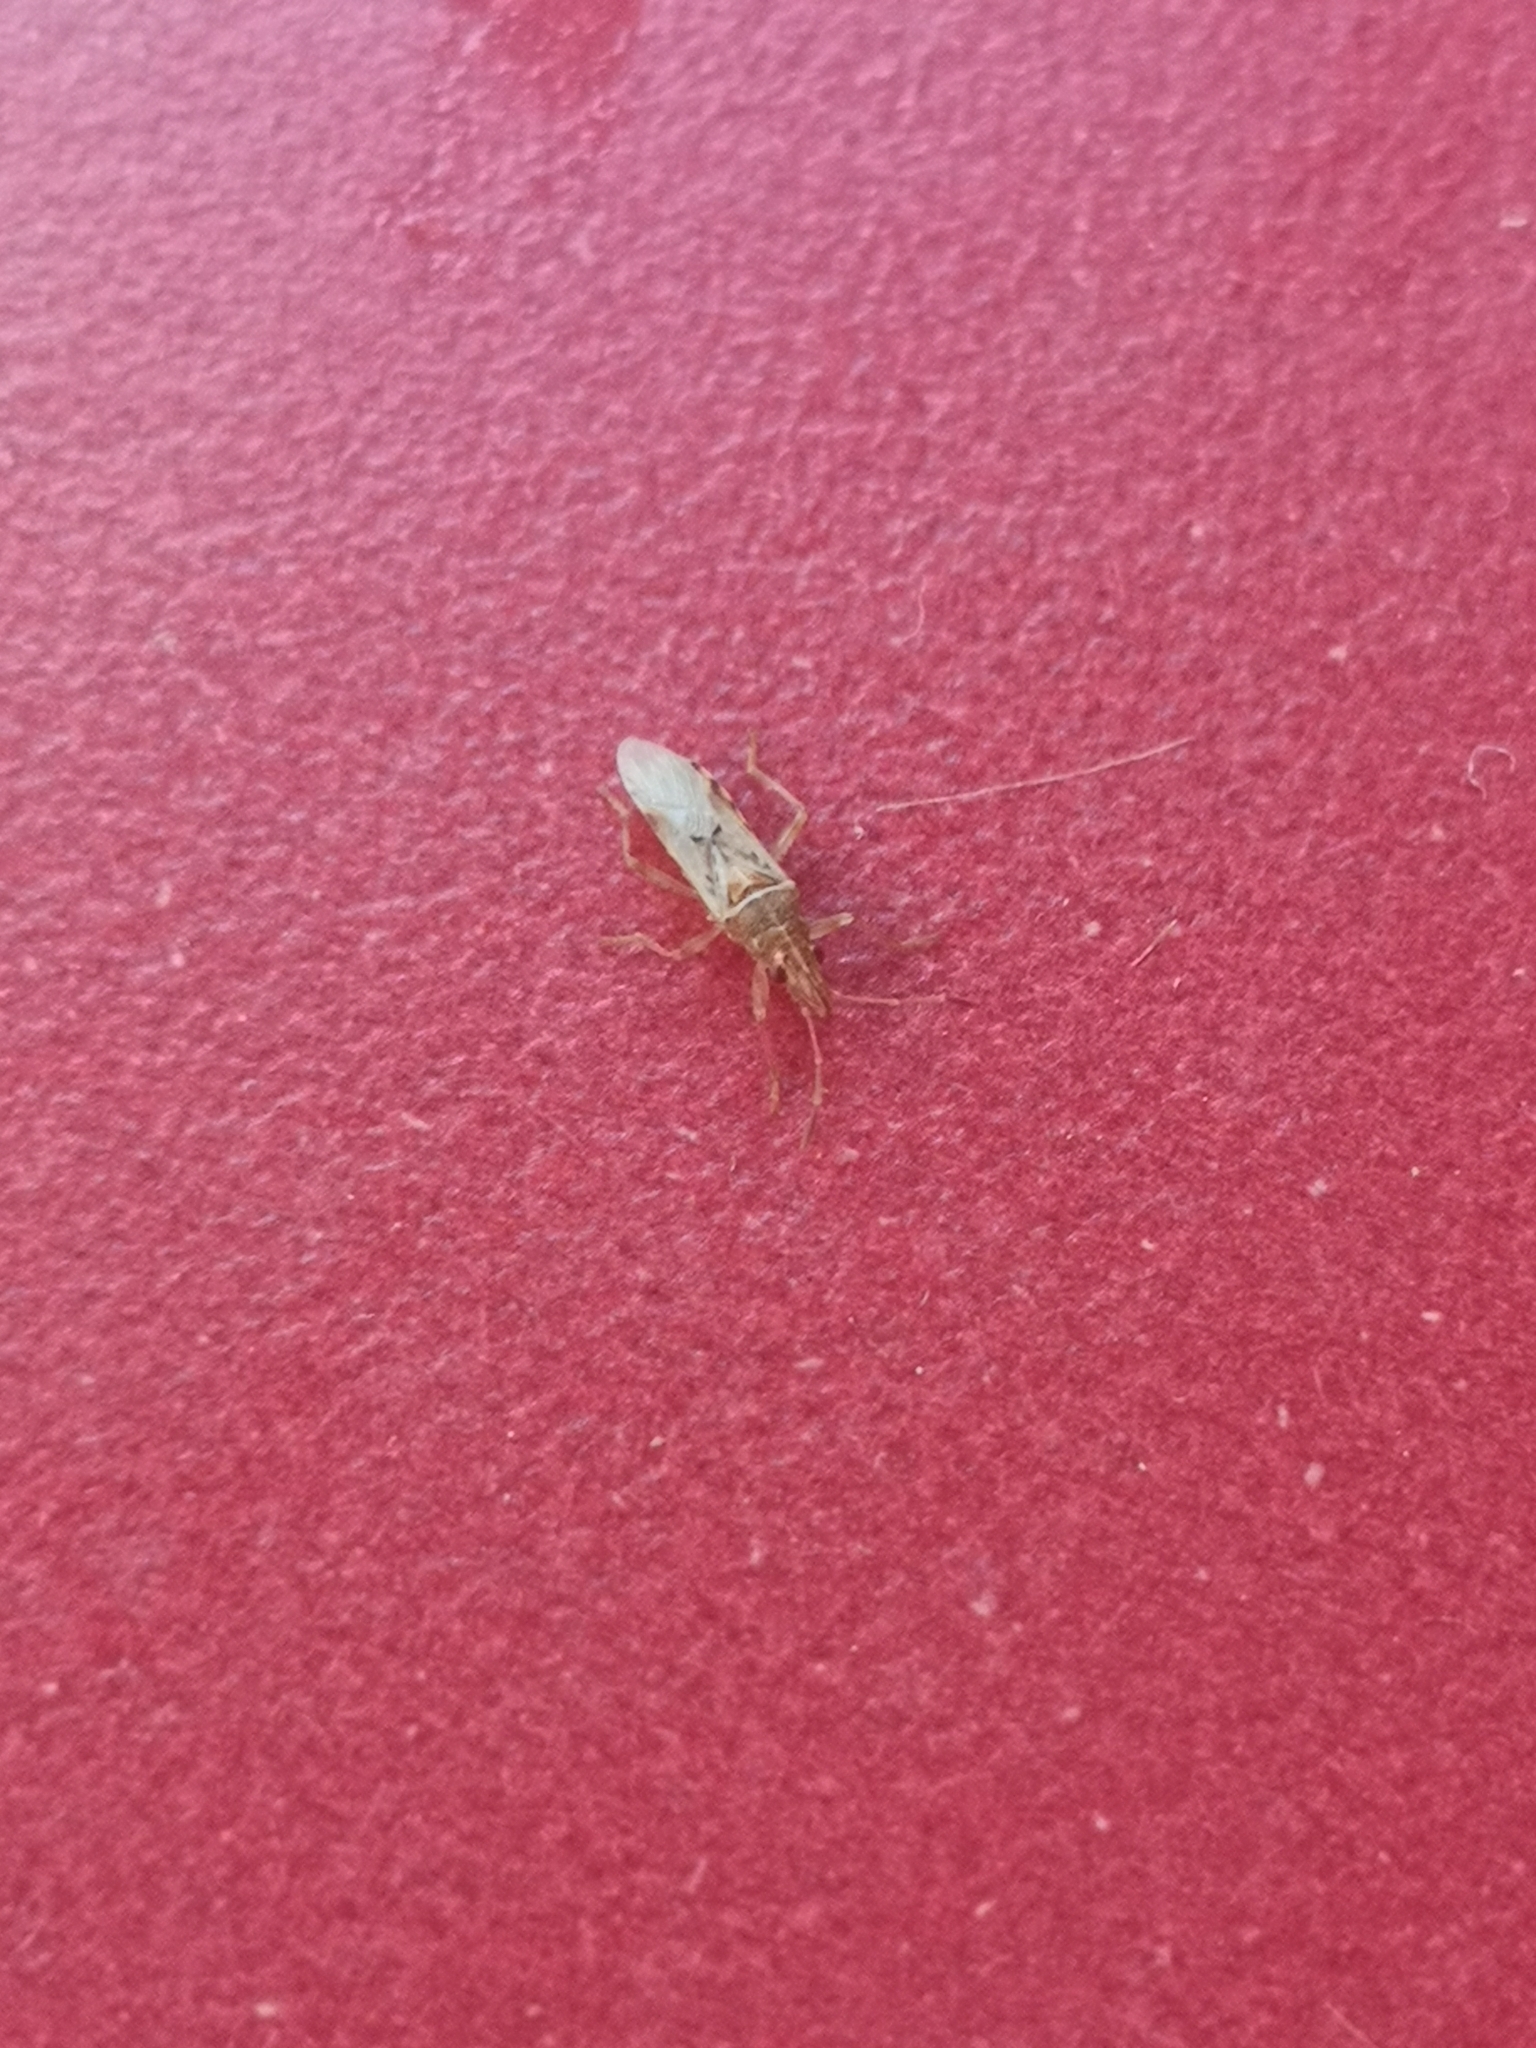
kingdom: Animalia
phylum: Arthropoda
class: Insecta
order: Hemiptera
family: Lygaeidae
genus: Belonochilus
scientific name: Belonochilus numenius
